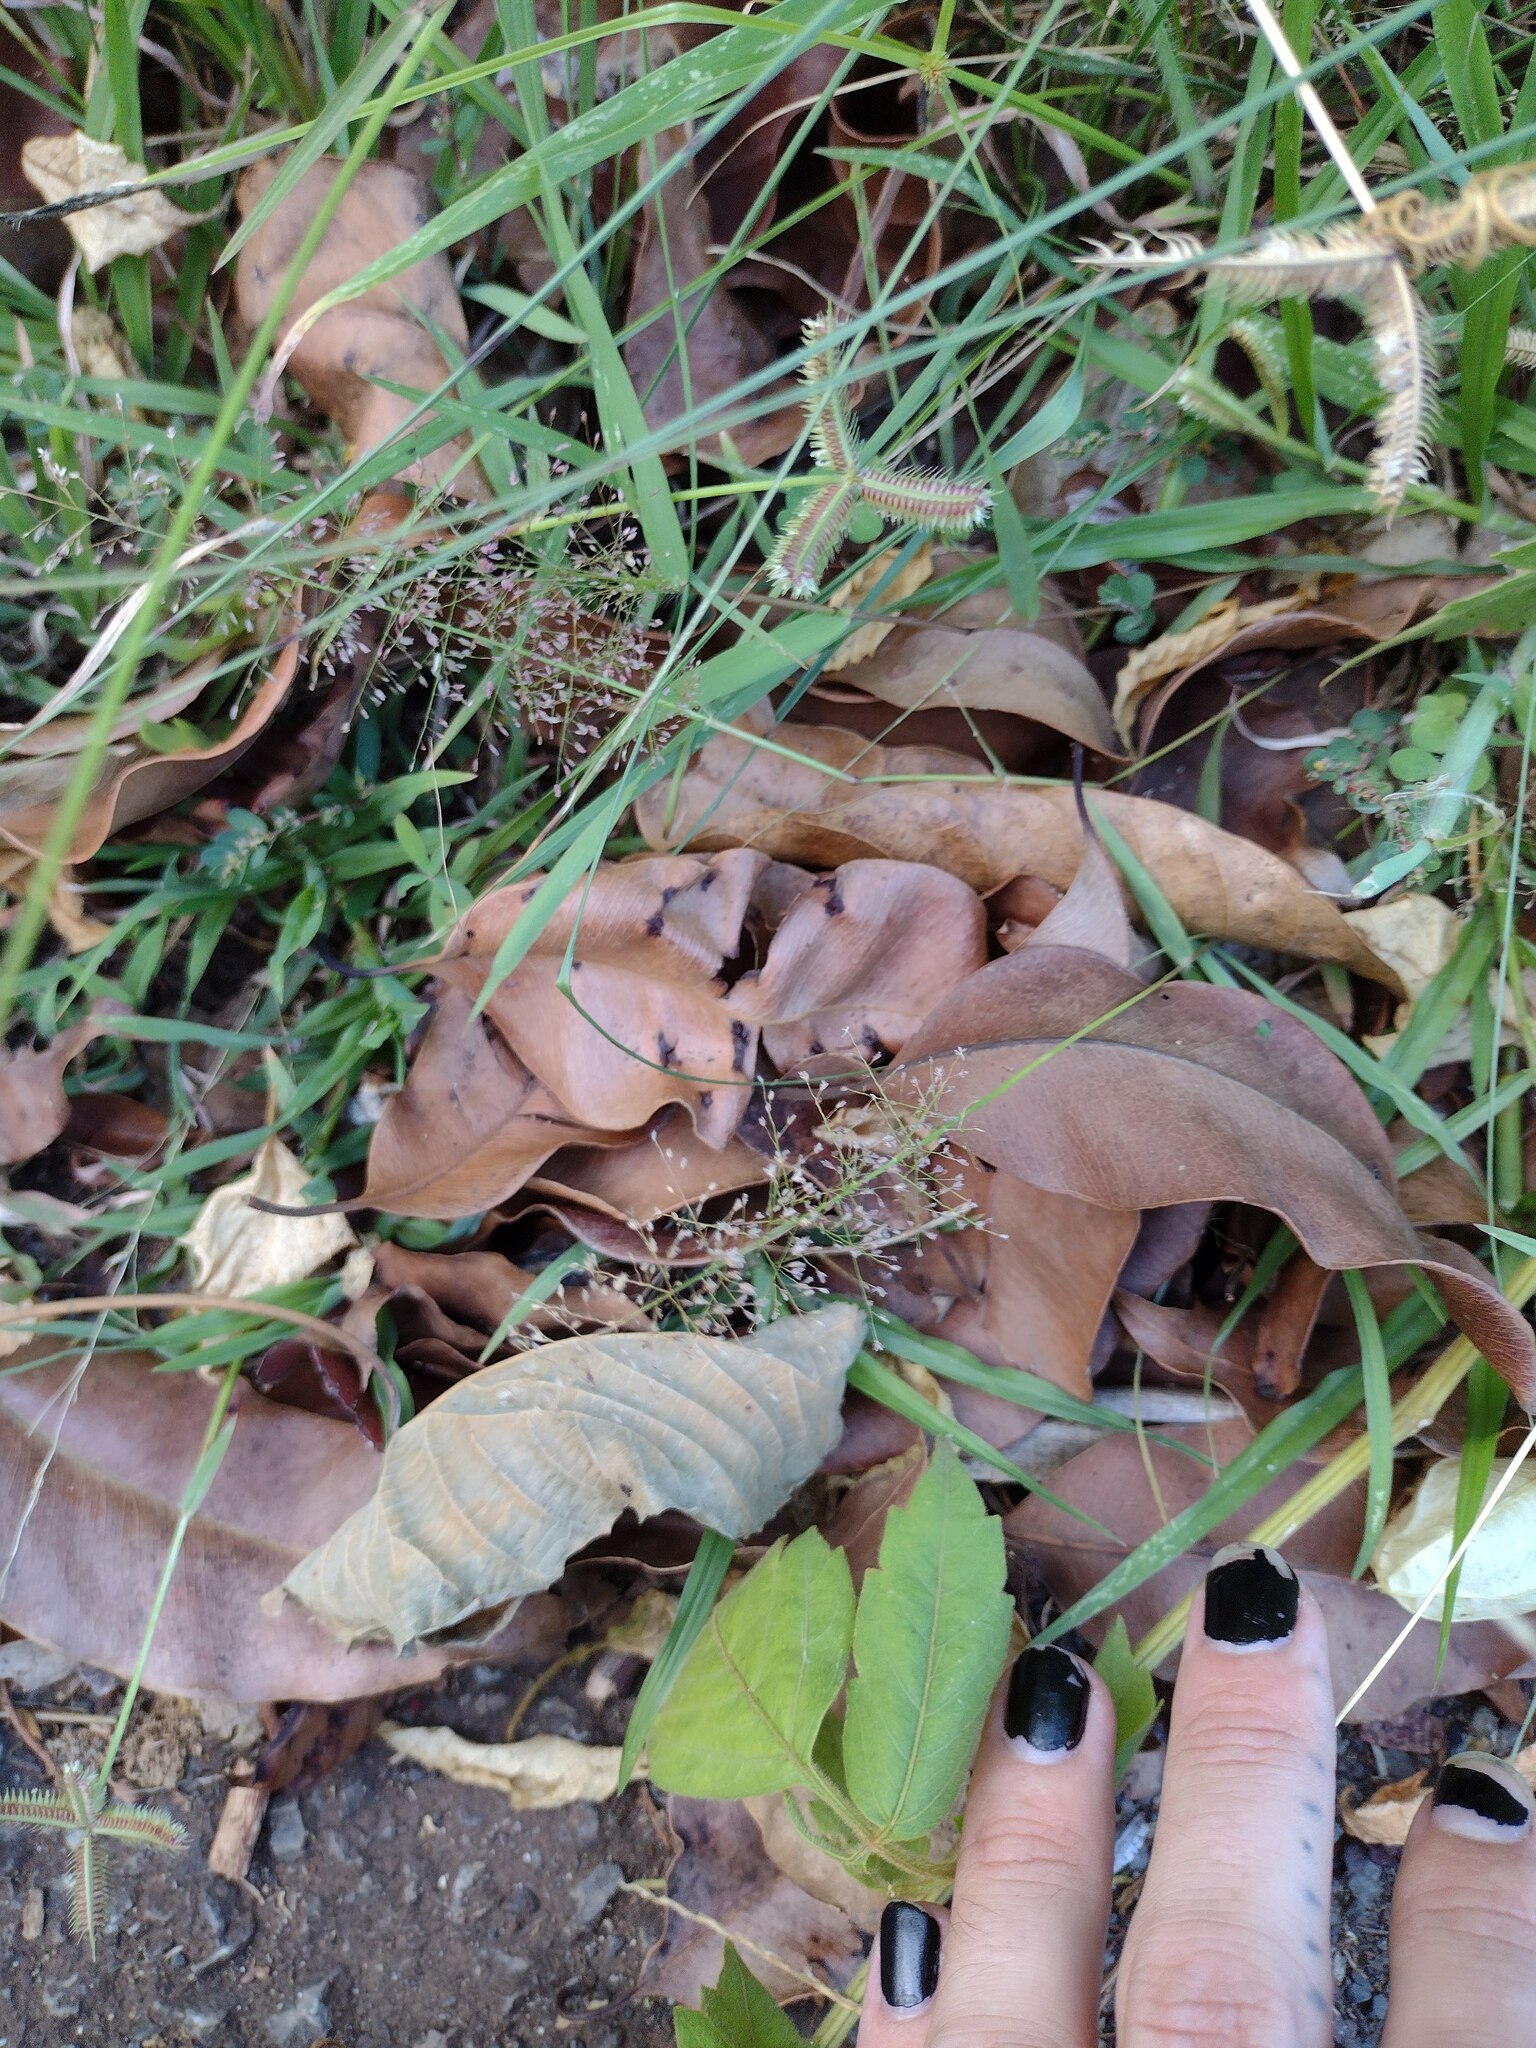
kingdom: Plantae
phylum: Tracheophyta
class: Liliopsida
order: Poales
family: Poaceae
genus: Eragrostis
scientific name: Eragrostis tenella
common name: Japanese lovegrass
